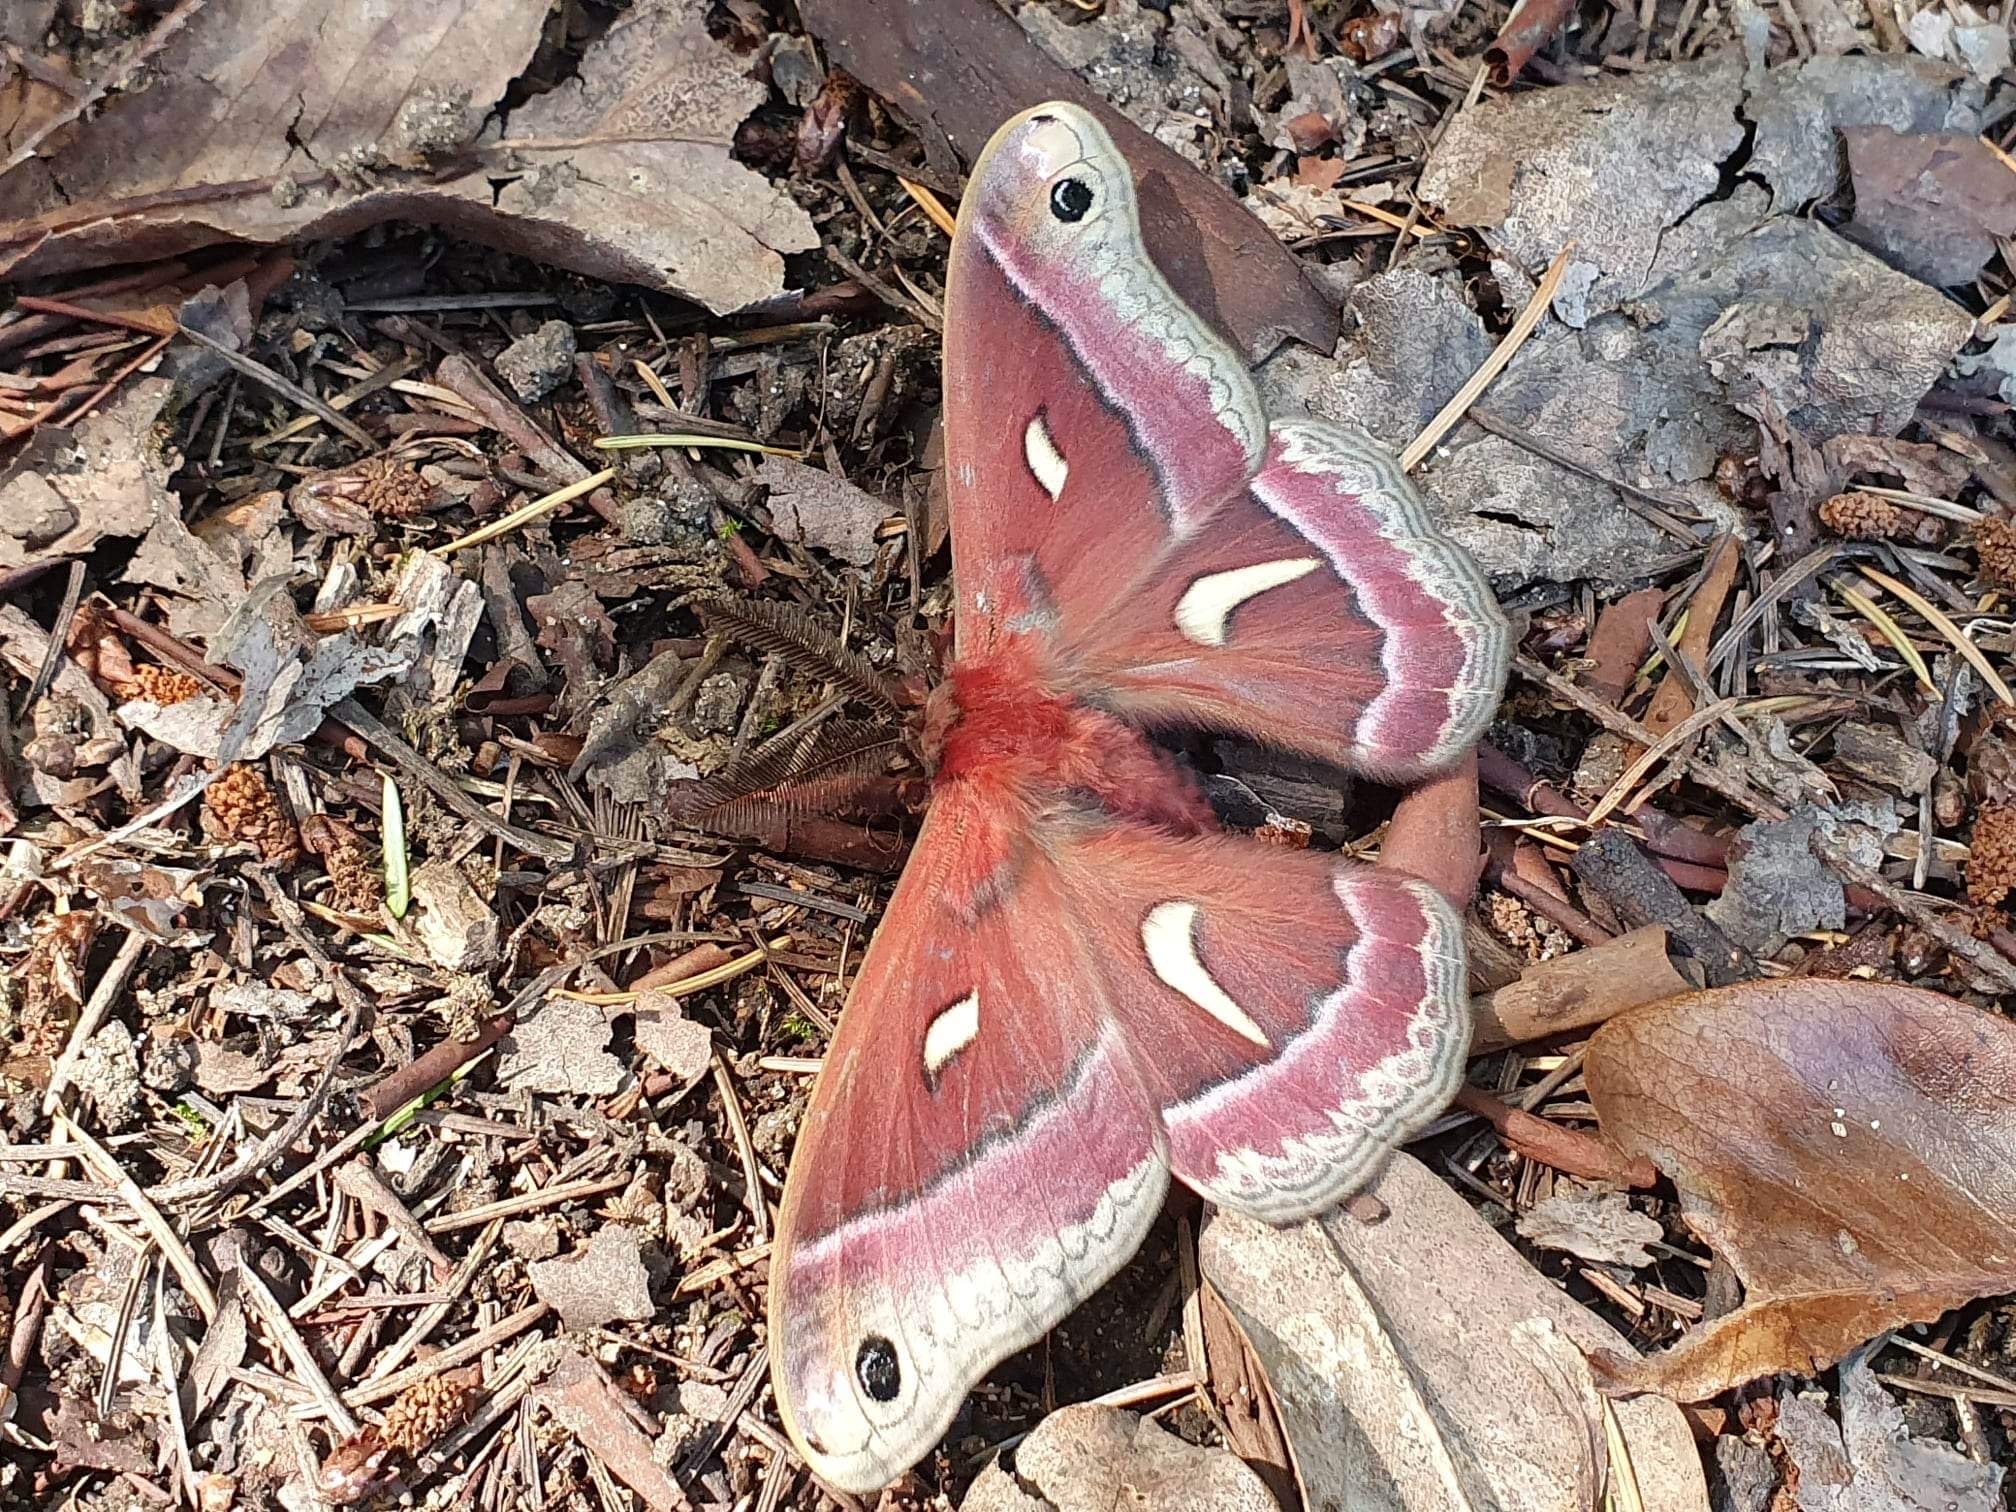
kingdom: Animalia
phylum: Arthropoda
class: Insecta
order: Lepidoptera
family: Saturniidae
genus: Hyalophora
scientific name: Hyalophora euryalus
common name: Ceanothus silkmoth
